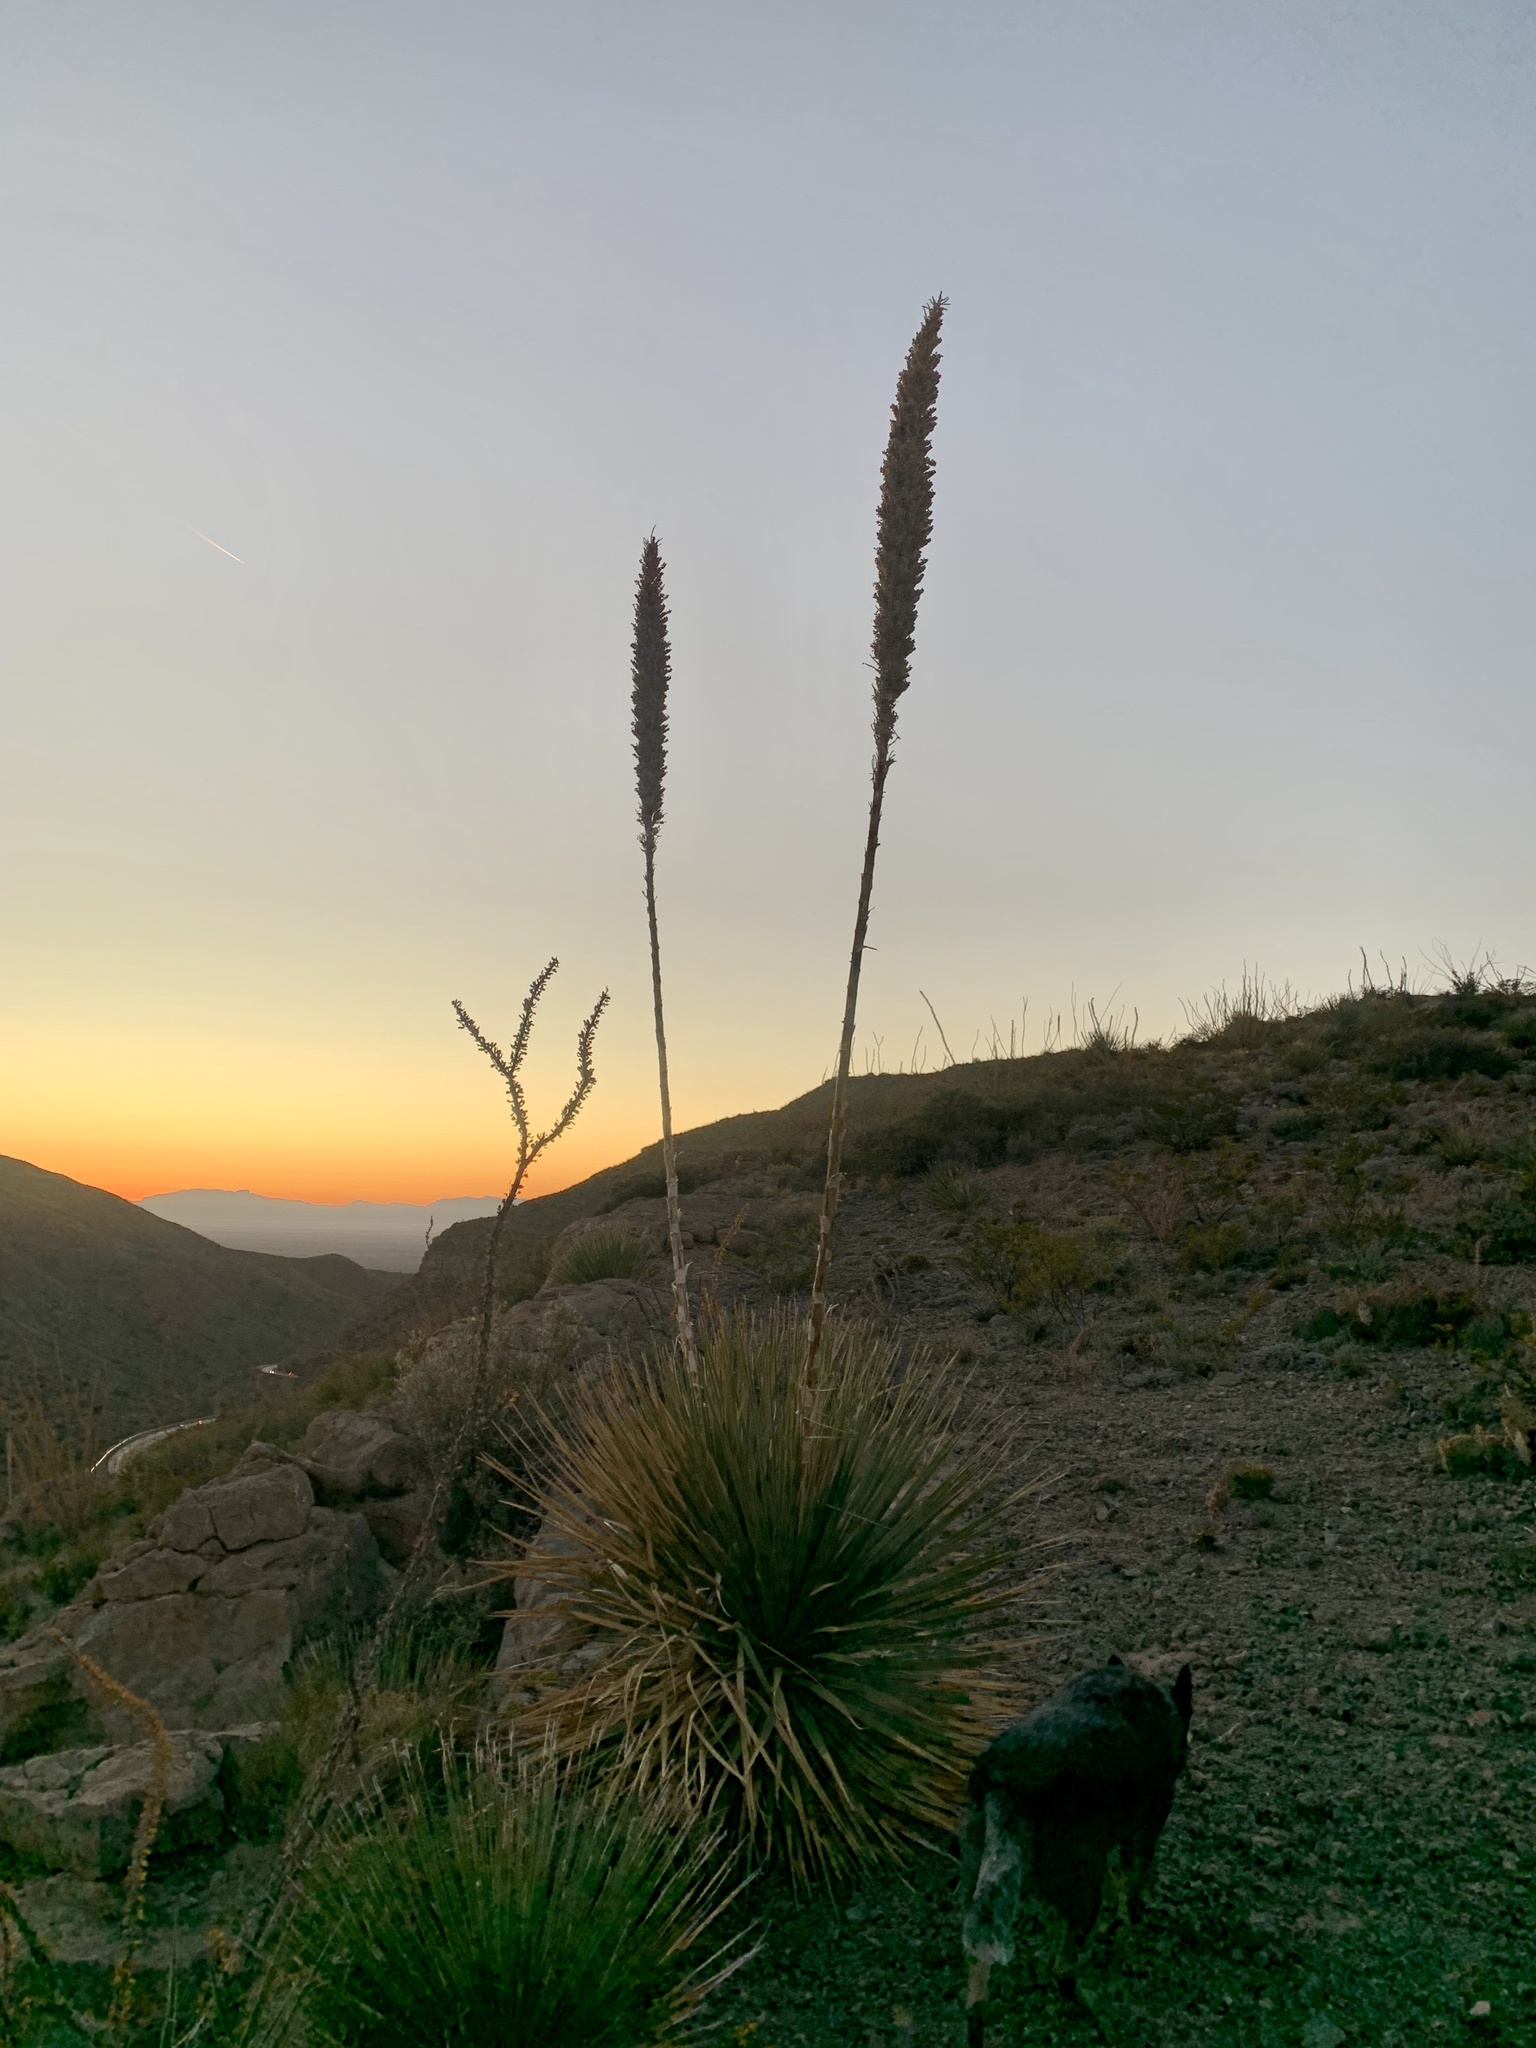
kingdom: Plantae
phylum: Tracheophyta
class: Liliopsida
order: Asparagales
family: Asparagaceae
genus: Dasylirion
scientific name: Dasylirion wheeleri
